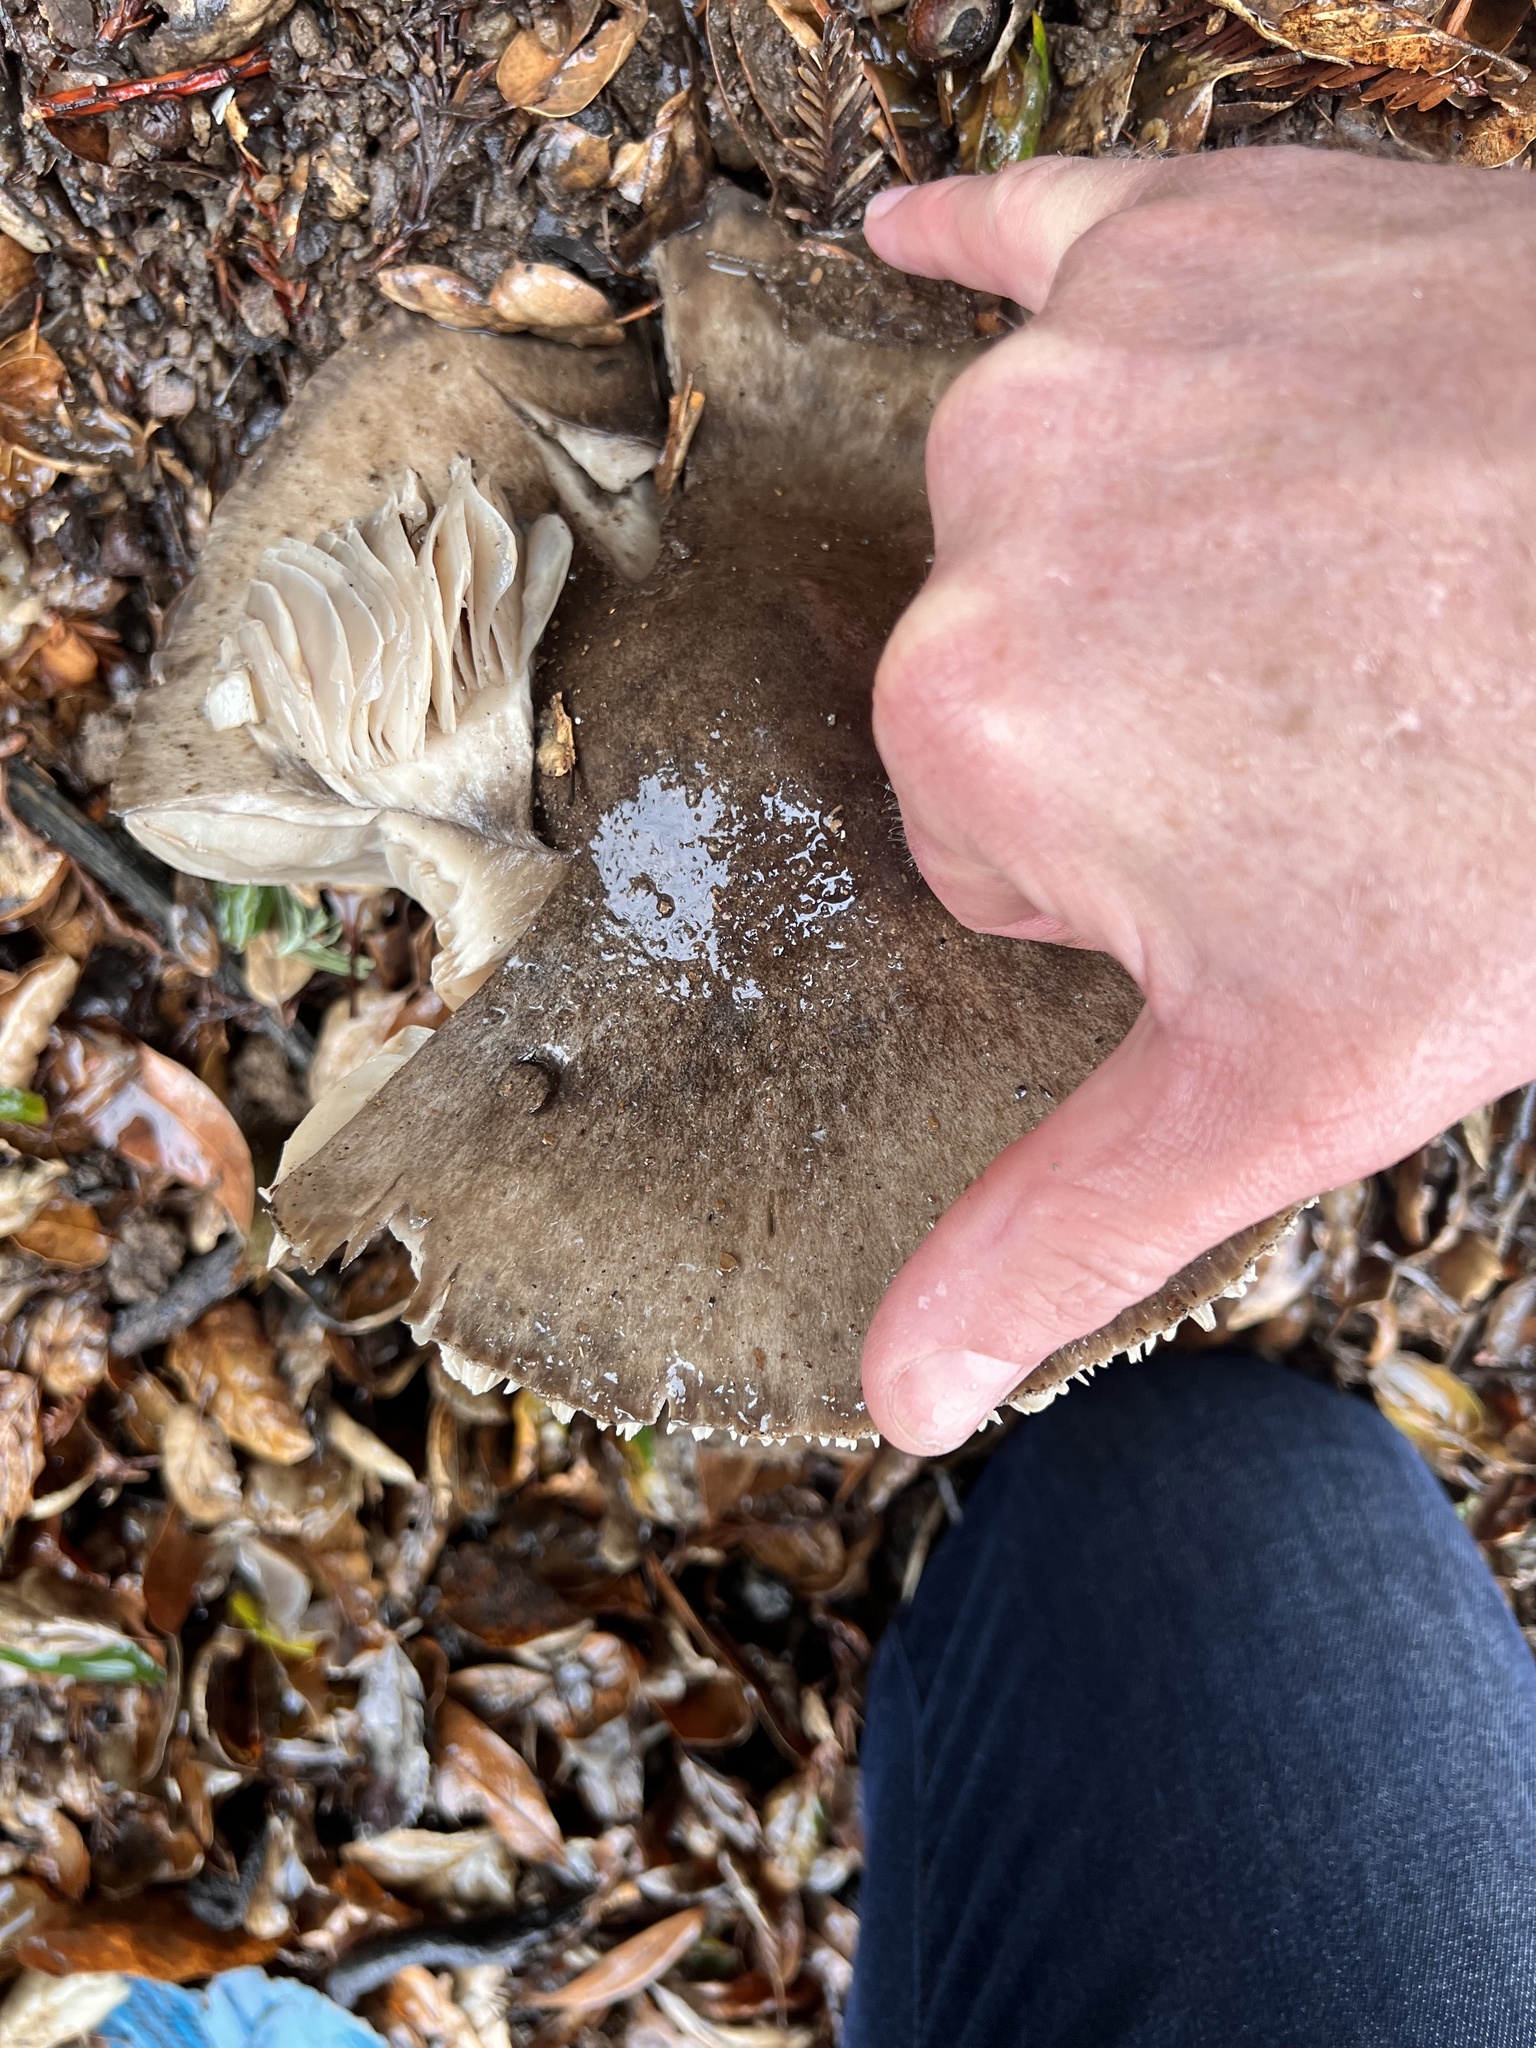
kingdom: Fungi
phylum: Basidiomycota
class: Agaricomycetes
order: Agaricales
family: Pluteaceae
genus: Volvopluteus
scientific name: Volvopluteus gloiocephalus
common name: Stubble rosegill
